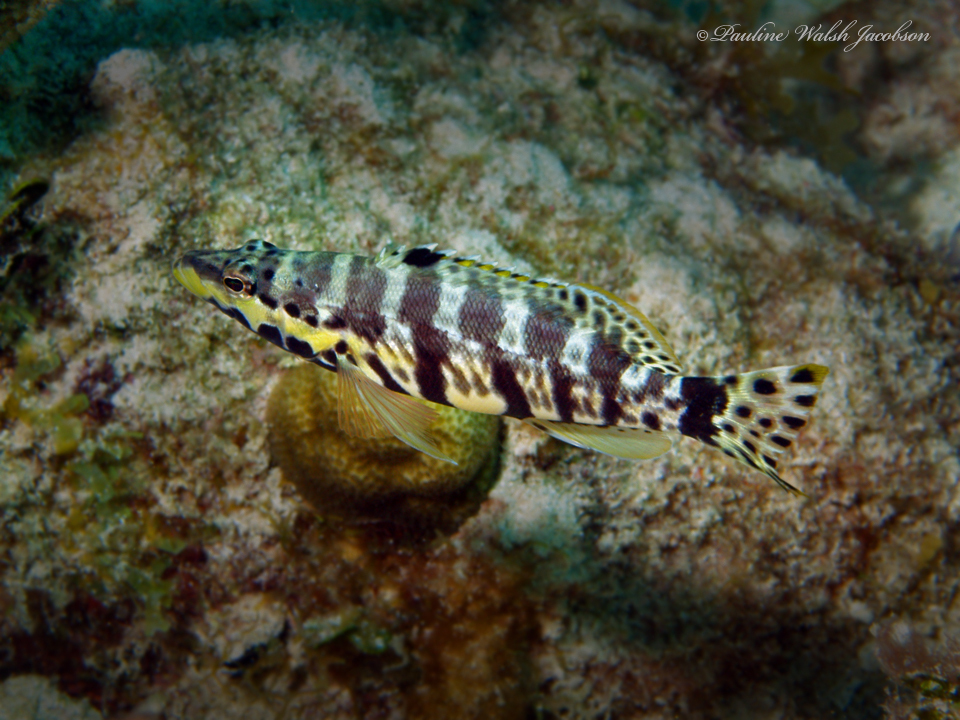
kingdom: Animalia
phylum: Chordata
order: Perciformes
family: Serranidae
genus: Serranus
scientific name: Serranus tigrinus
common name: Harlequin bass
